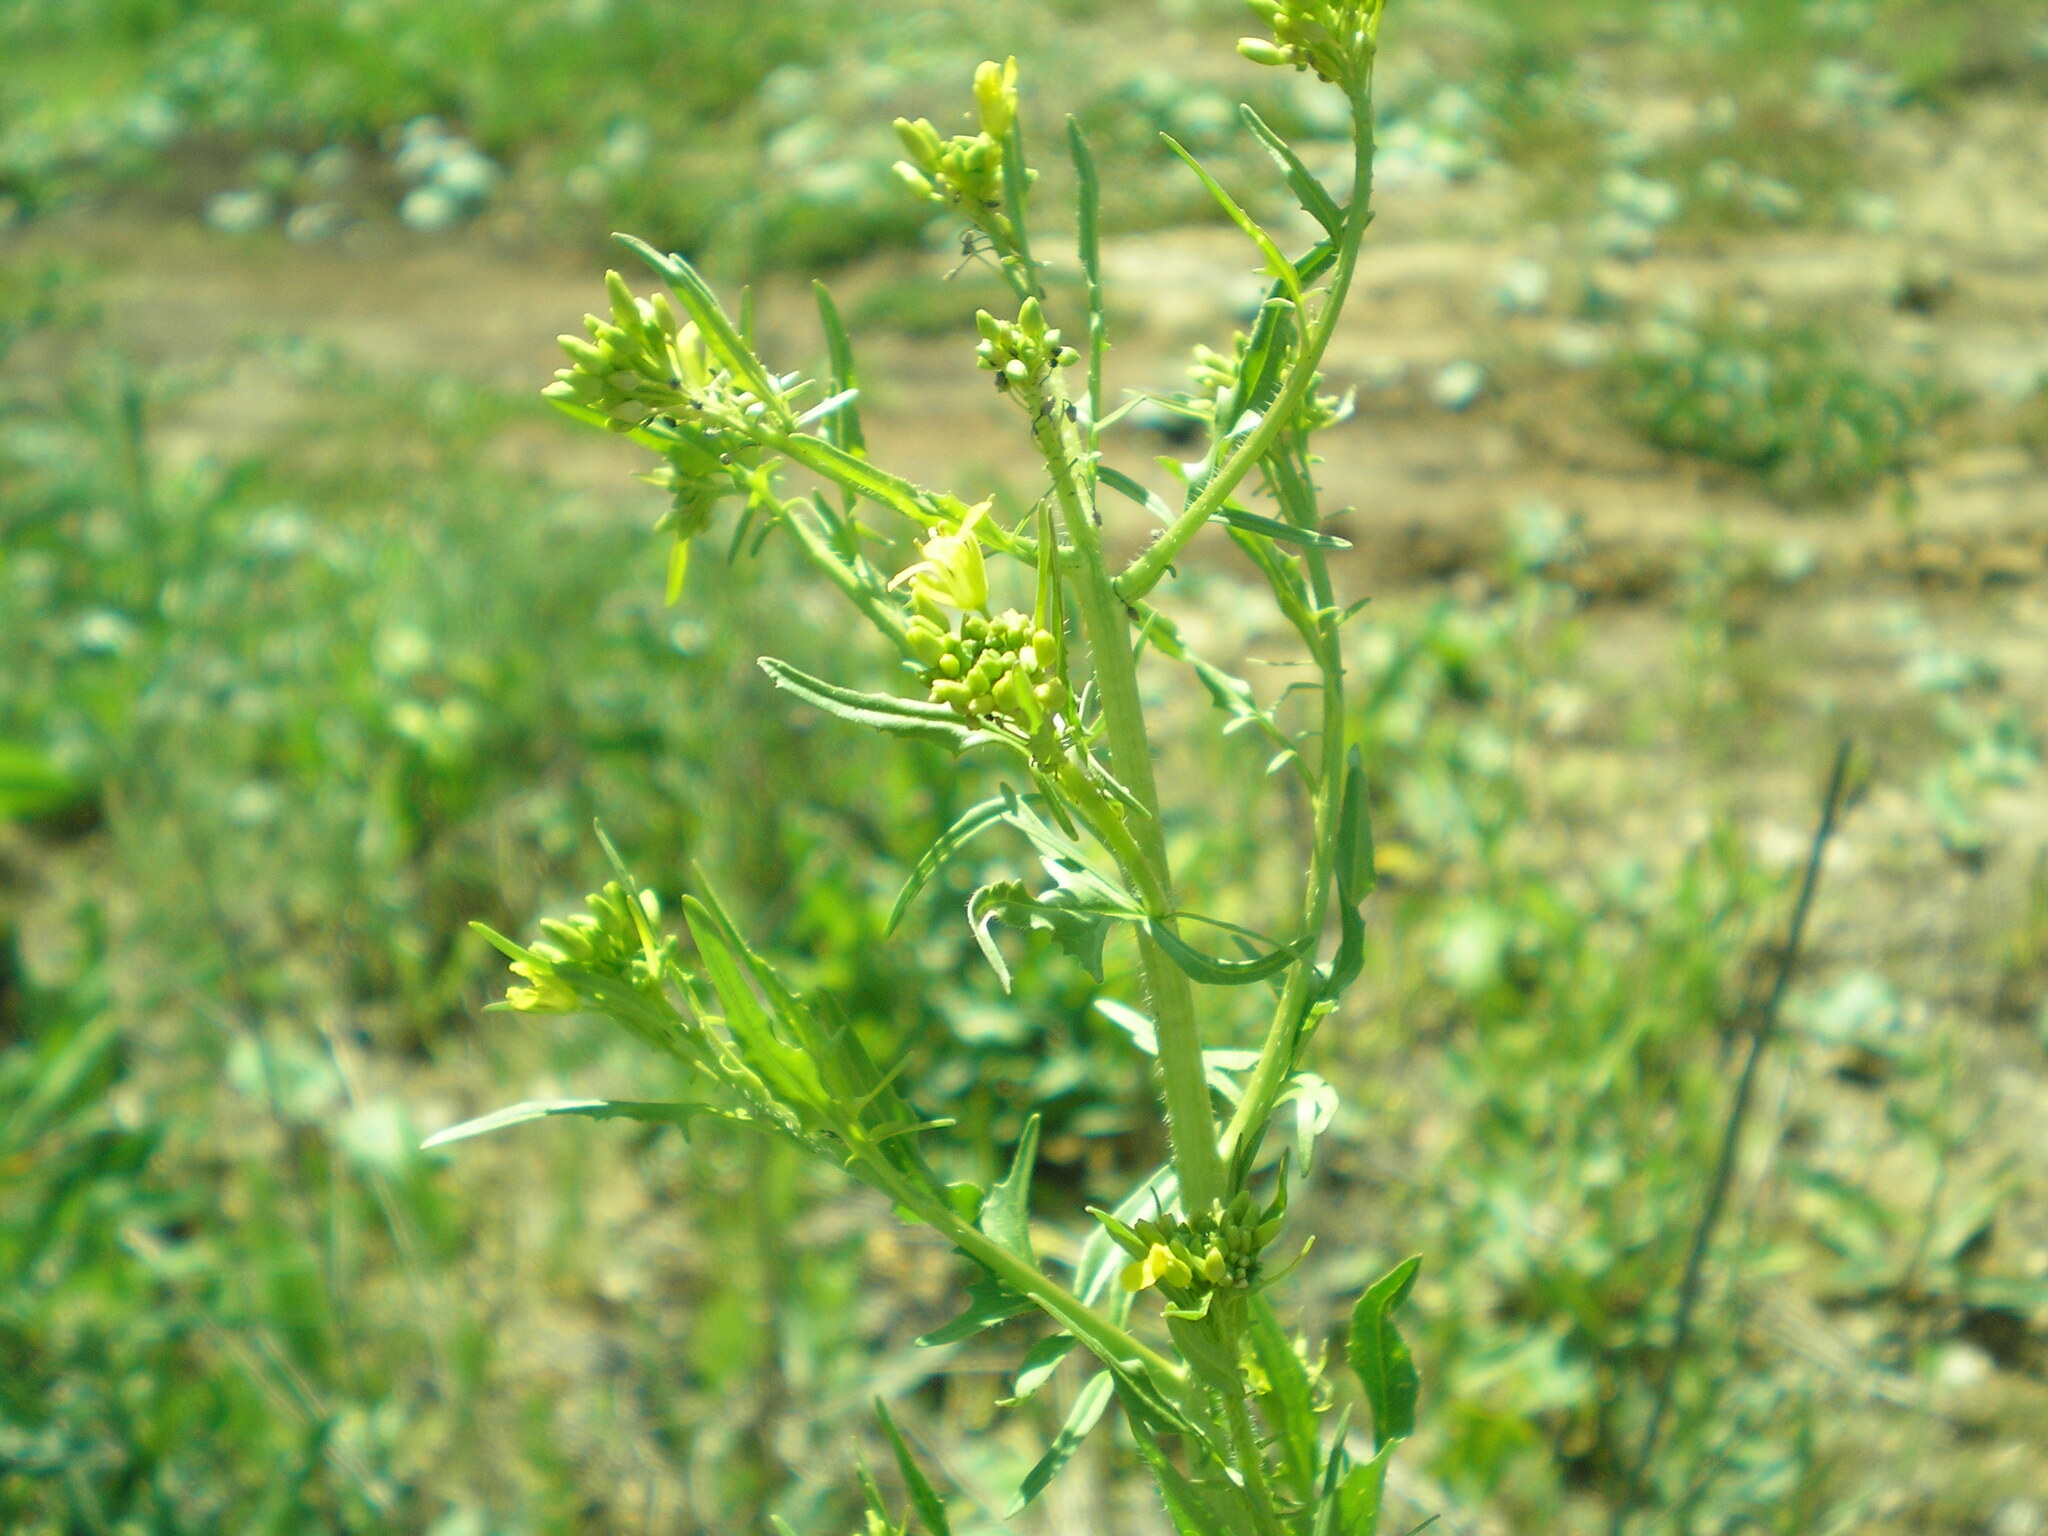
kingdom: Plantae
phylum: Tracheophyta
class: Magnoliopsida
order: Brassicales
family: Brassicaceae
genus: Sisymbrium
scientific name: Sisymbrium loeselii
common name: False london-rocket
